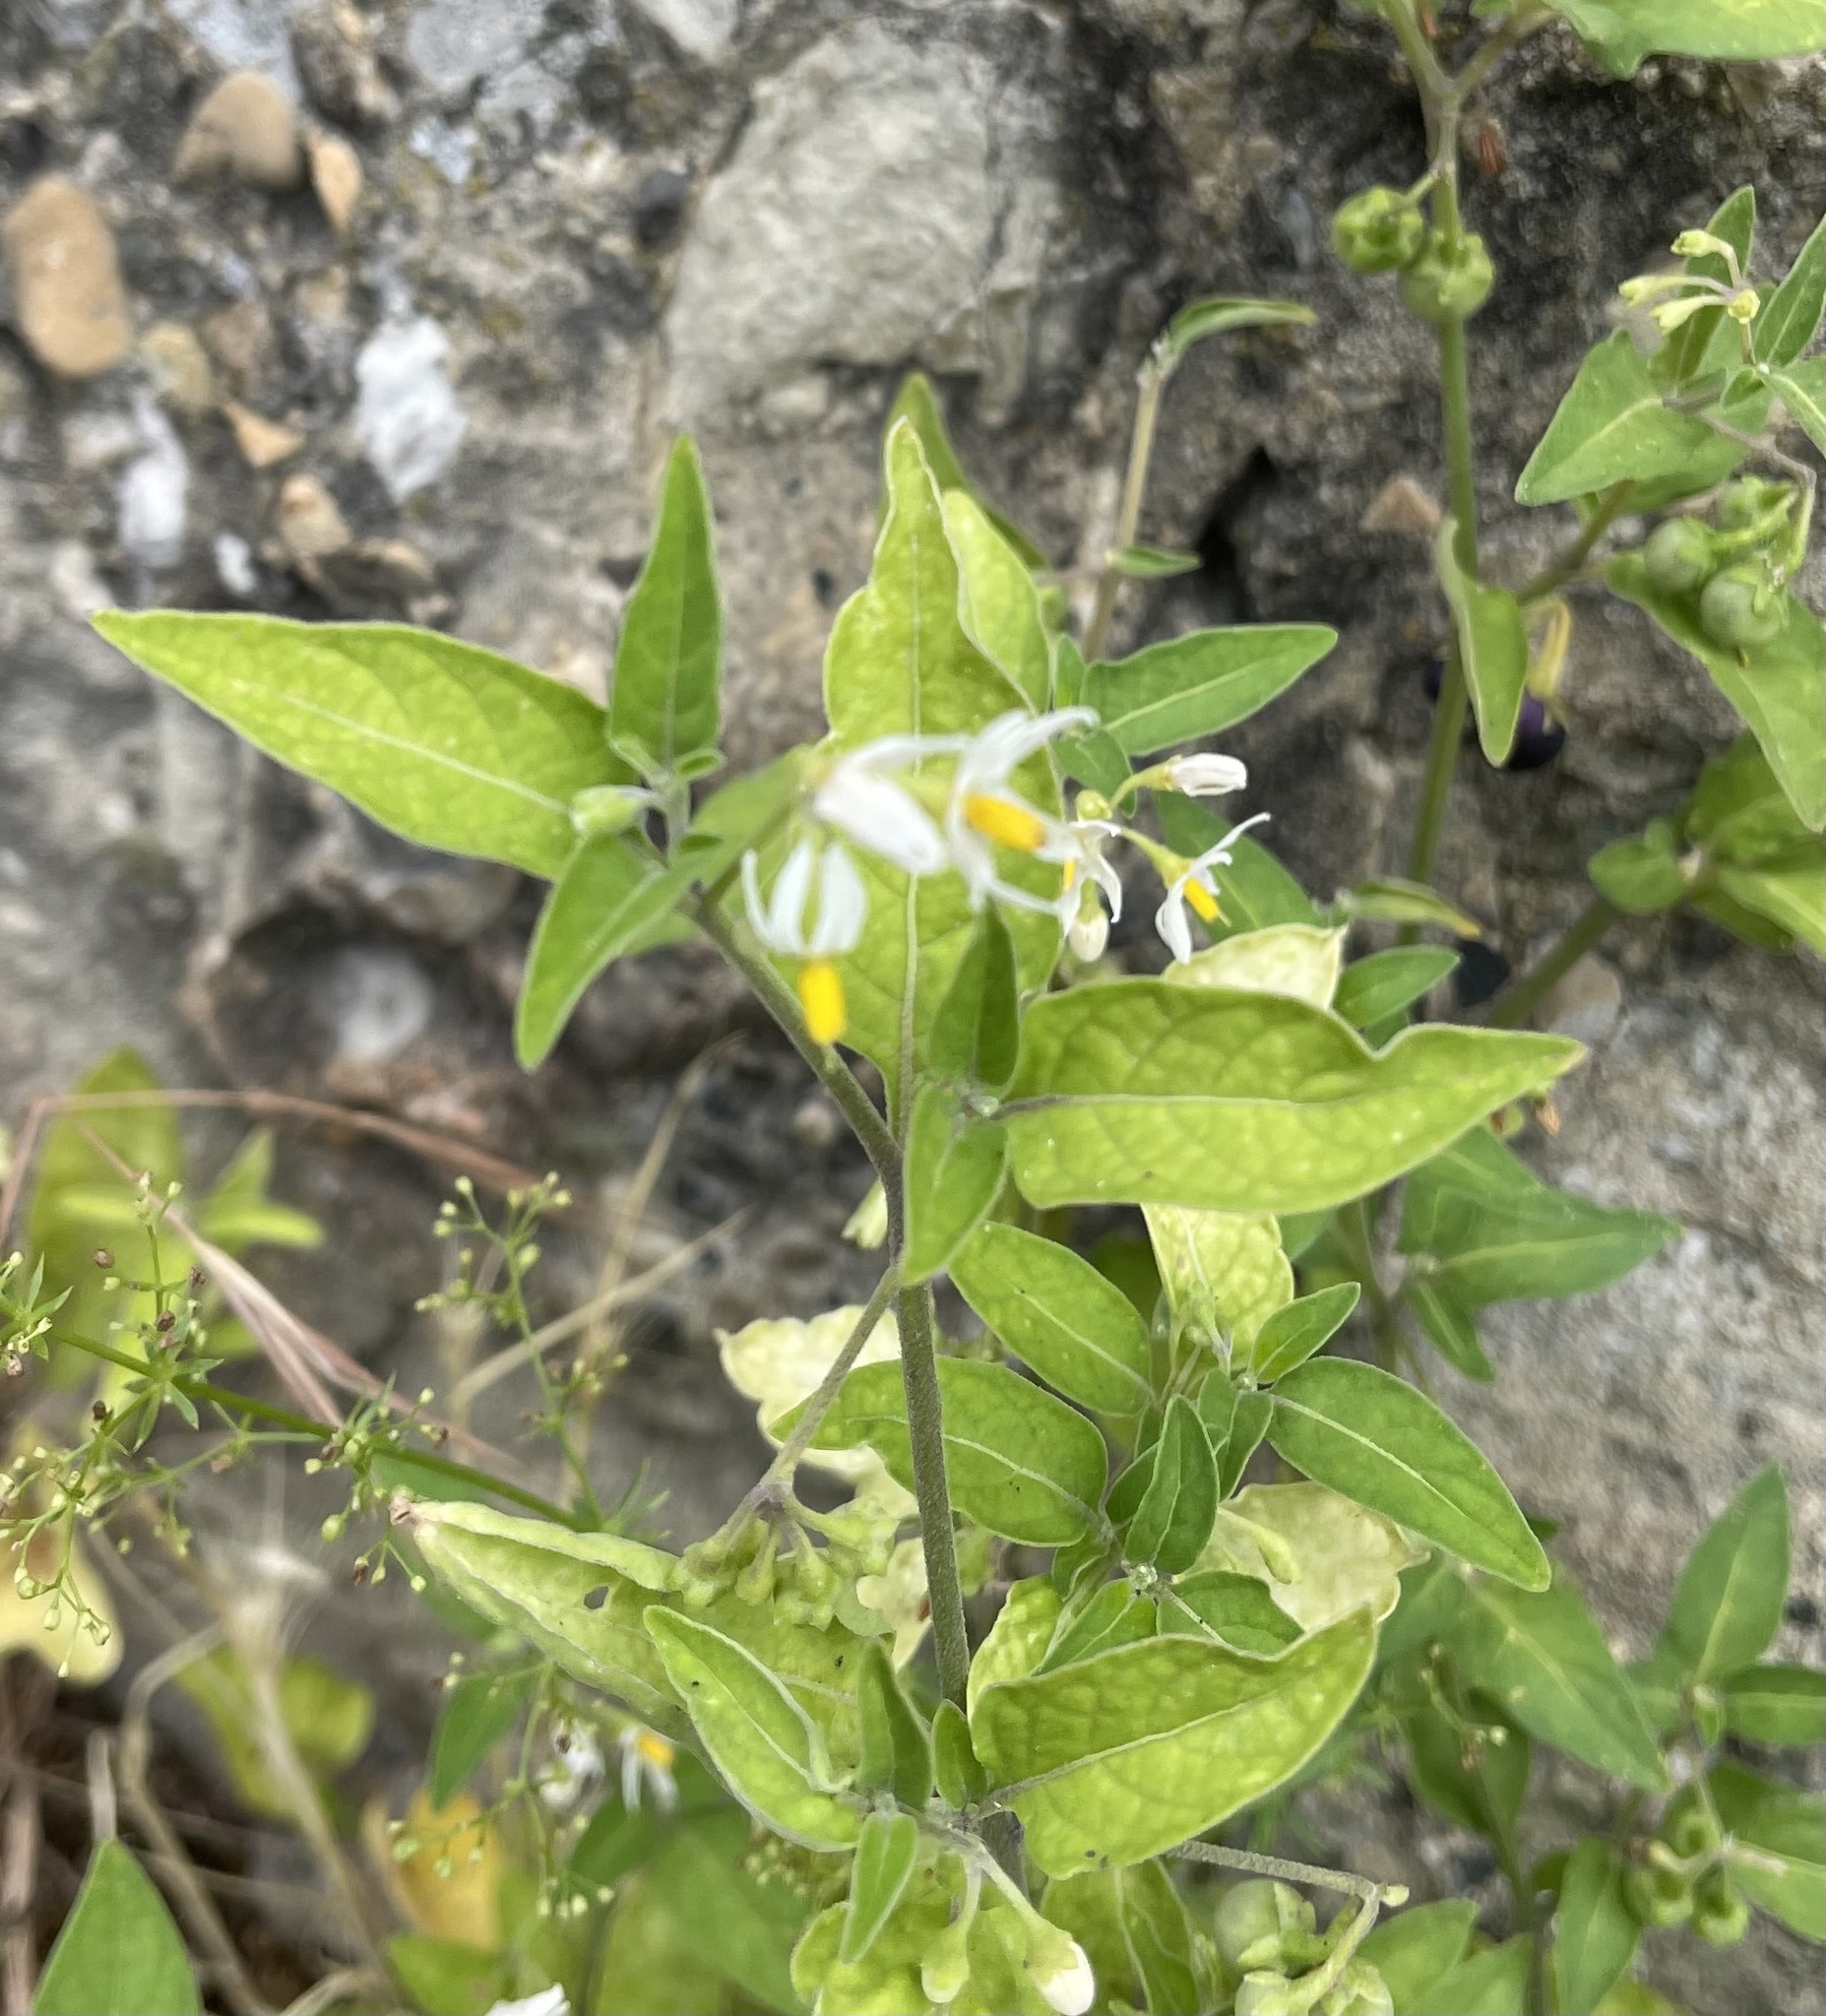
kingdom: Plantae
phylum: Tracheophyta
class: Magnoliopsida
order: Solanales
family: Solanaceae
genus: Solanum
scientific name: Solanum chenopodioides
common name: Tall nightshade
